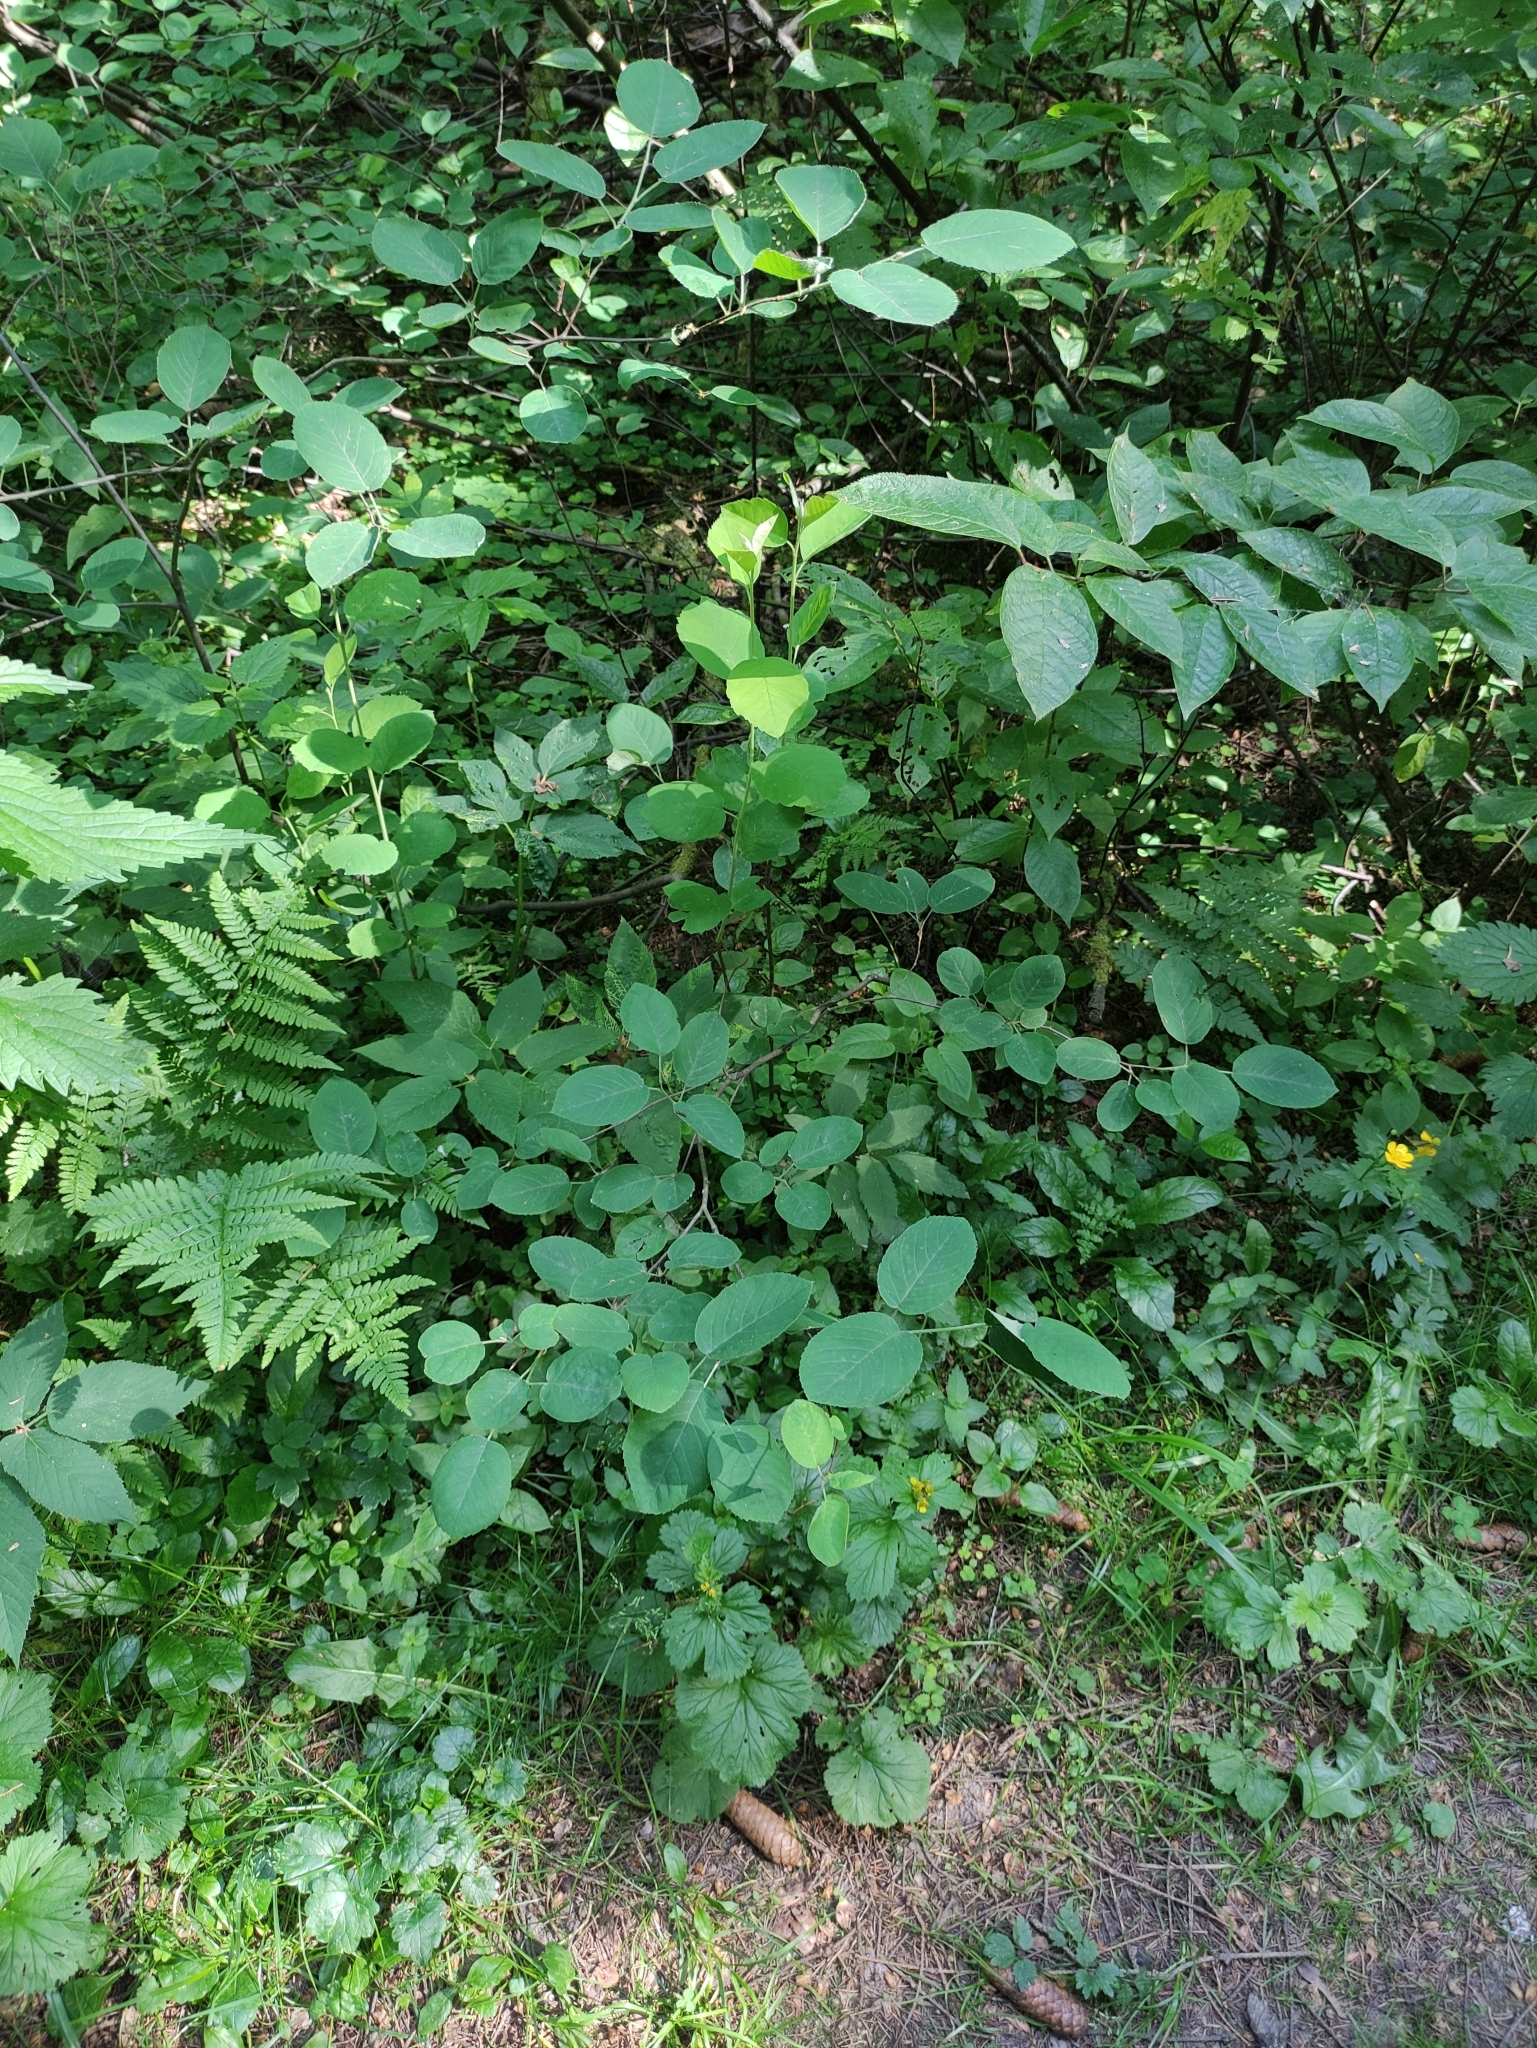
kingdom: Plantae
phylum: Tracheophyta
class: Magnoliopsida
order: Rosales
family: Rosaceae
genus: Amelanchier
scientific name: Amelanchier
